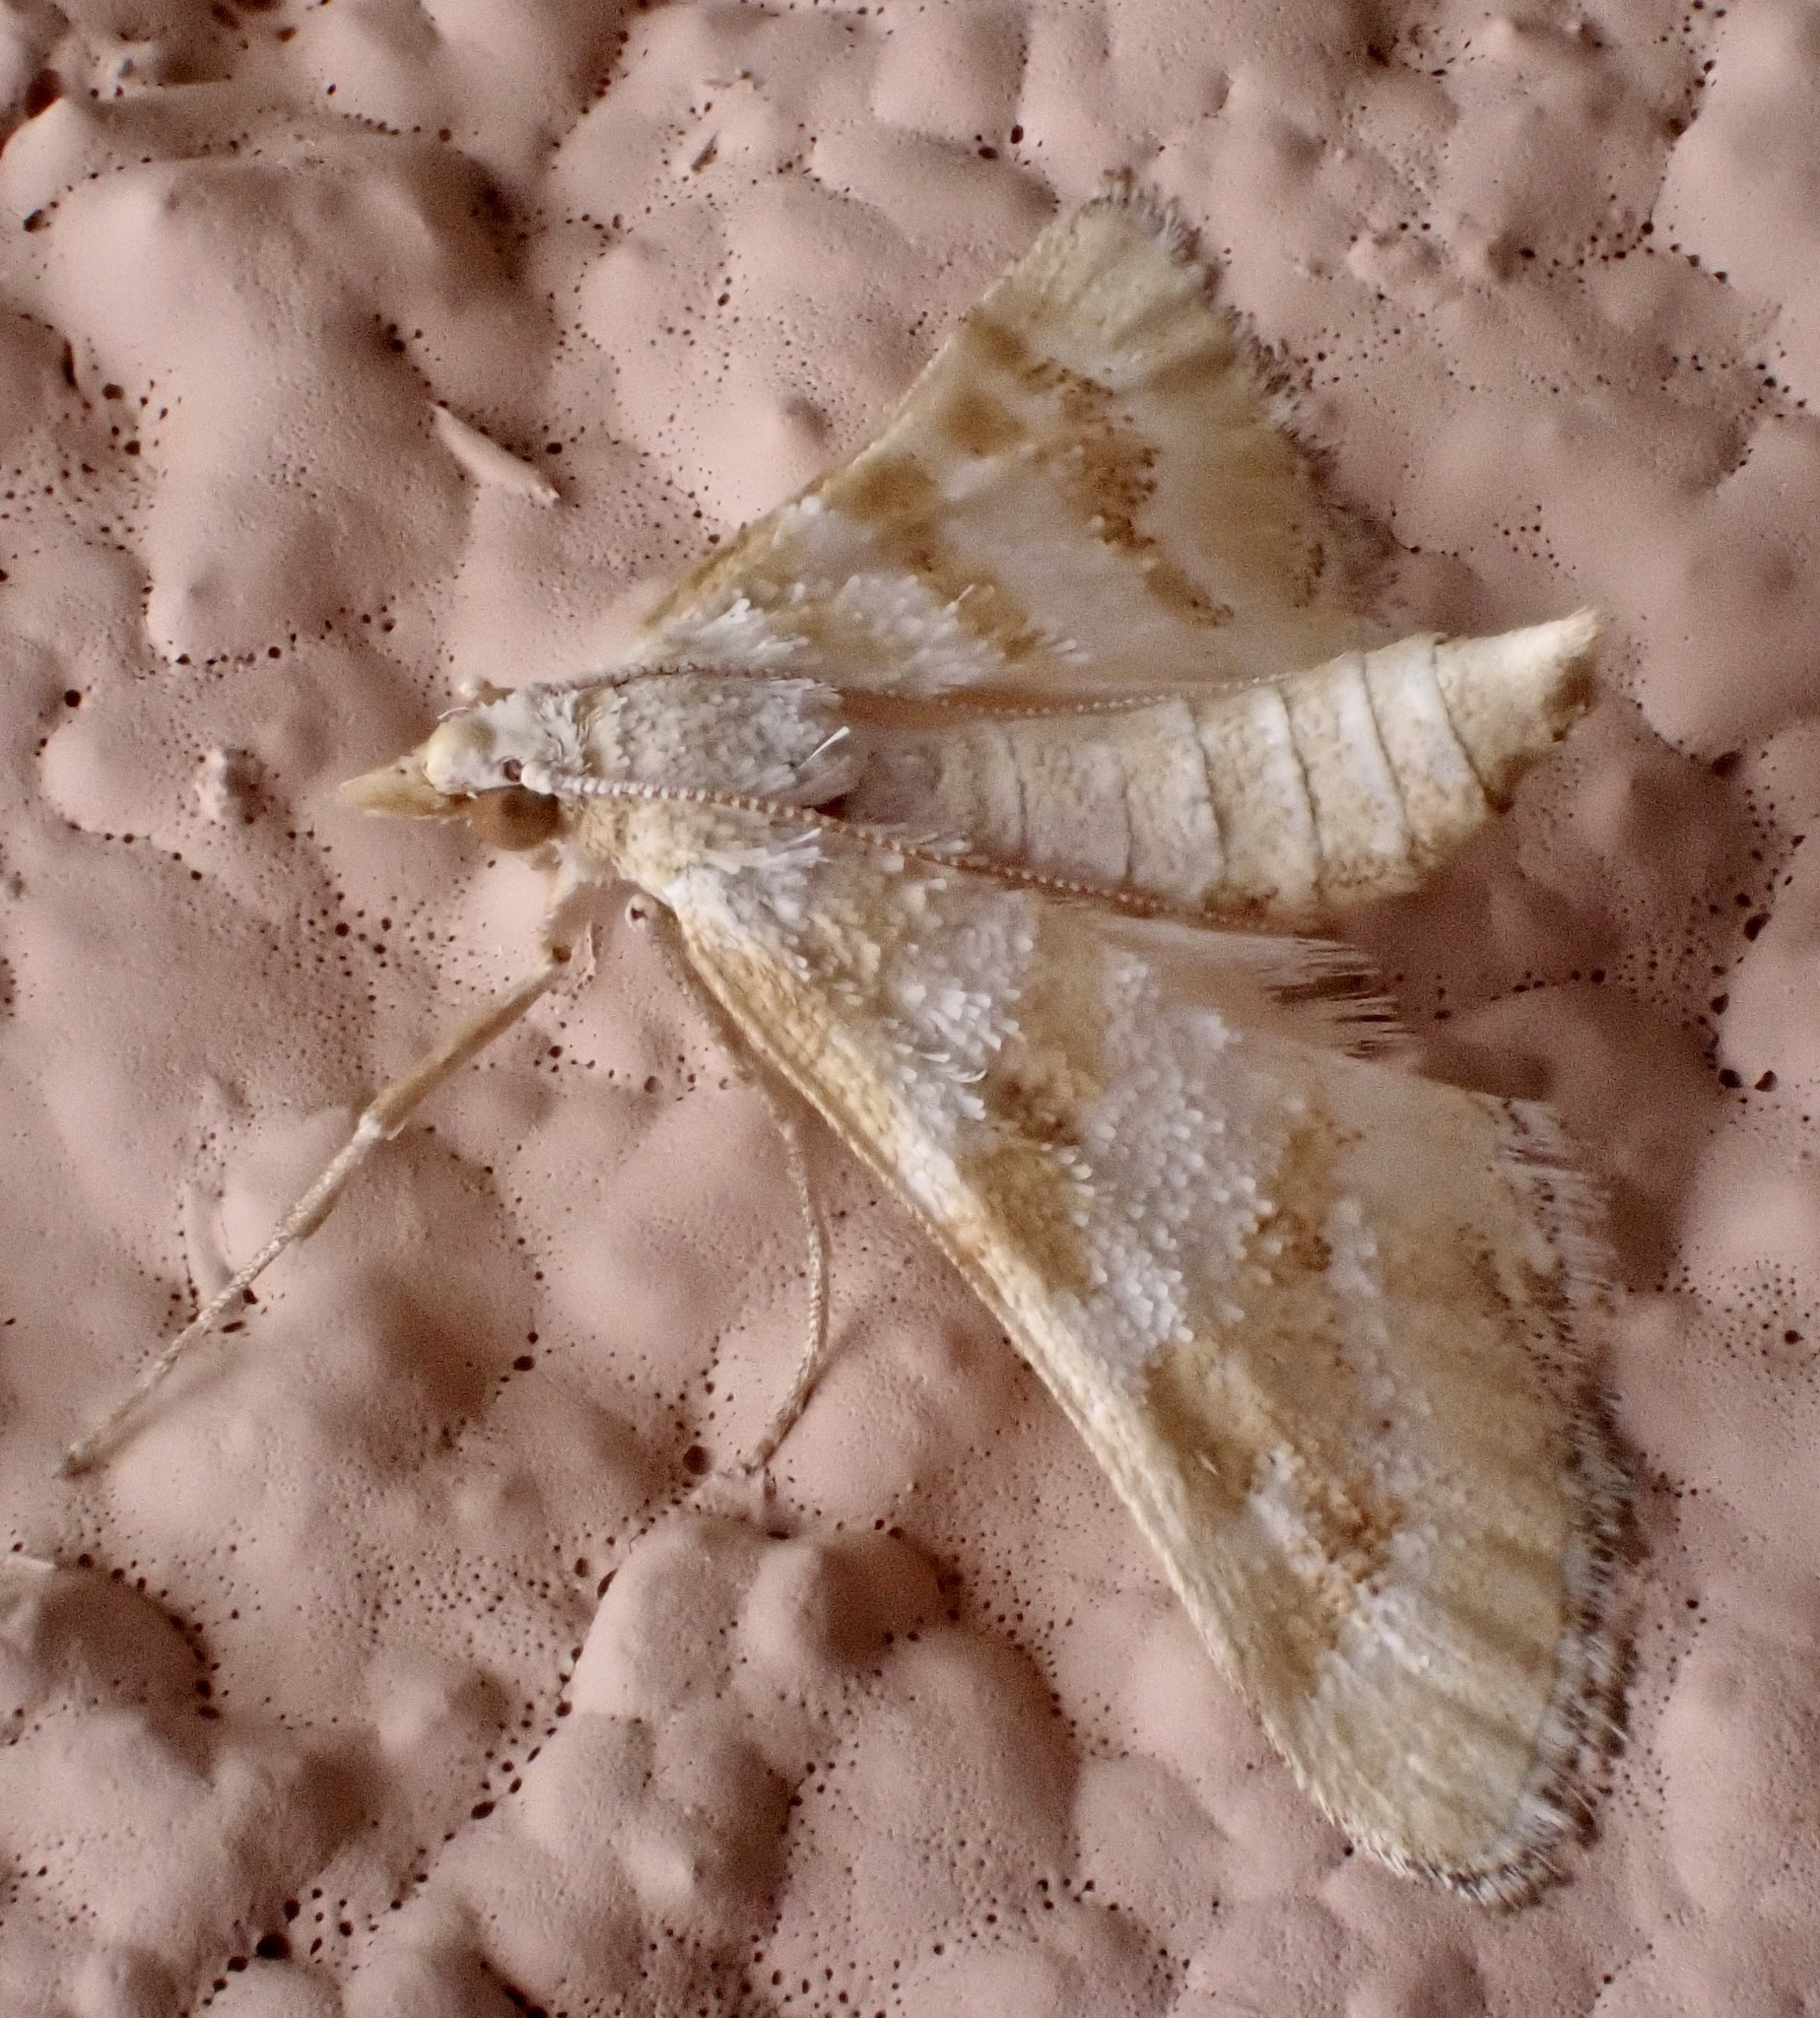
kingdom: Animalia
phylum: Arthropoda
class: Insecta
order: Lepidoptera
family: Crambidae
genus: Metasia
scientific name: Metasia suppandalis
